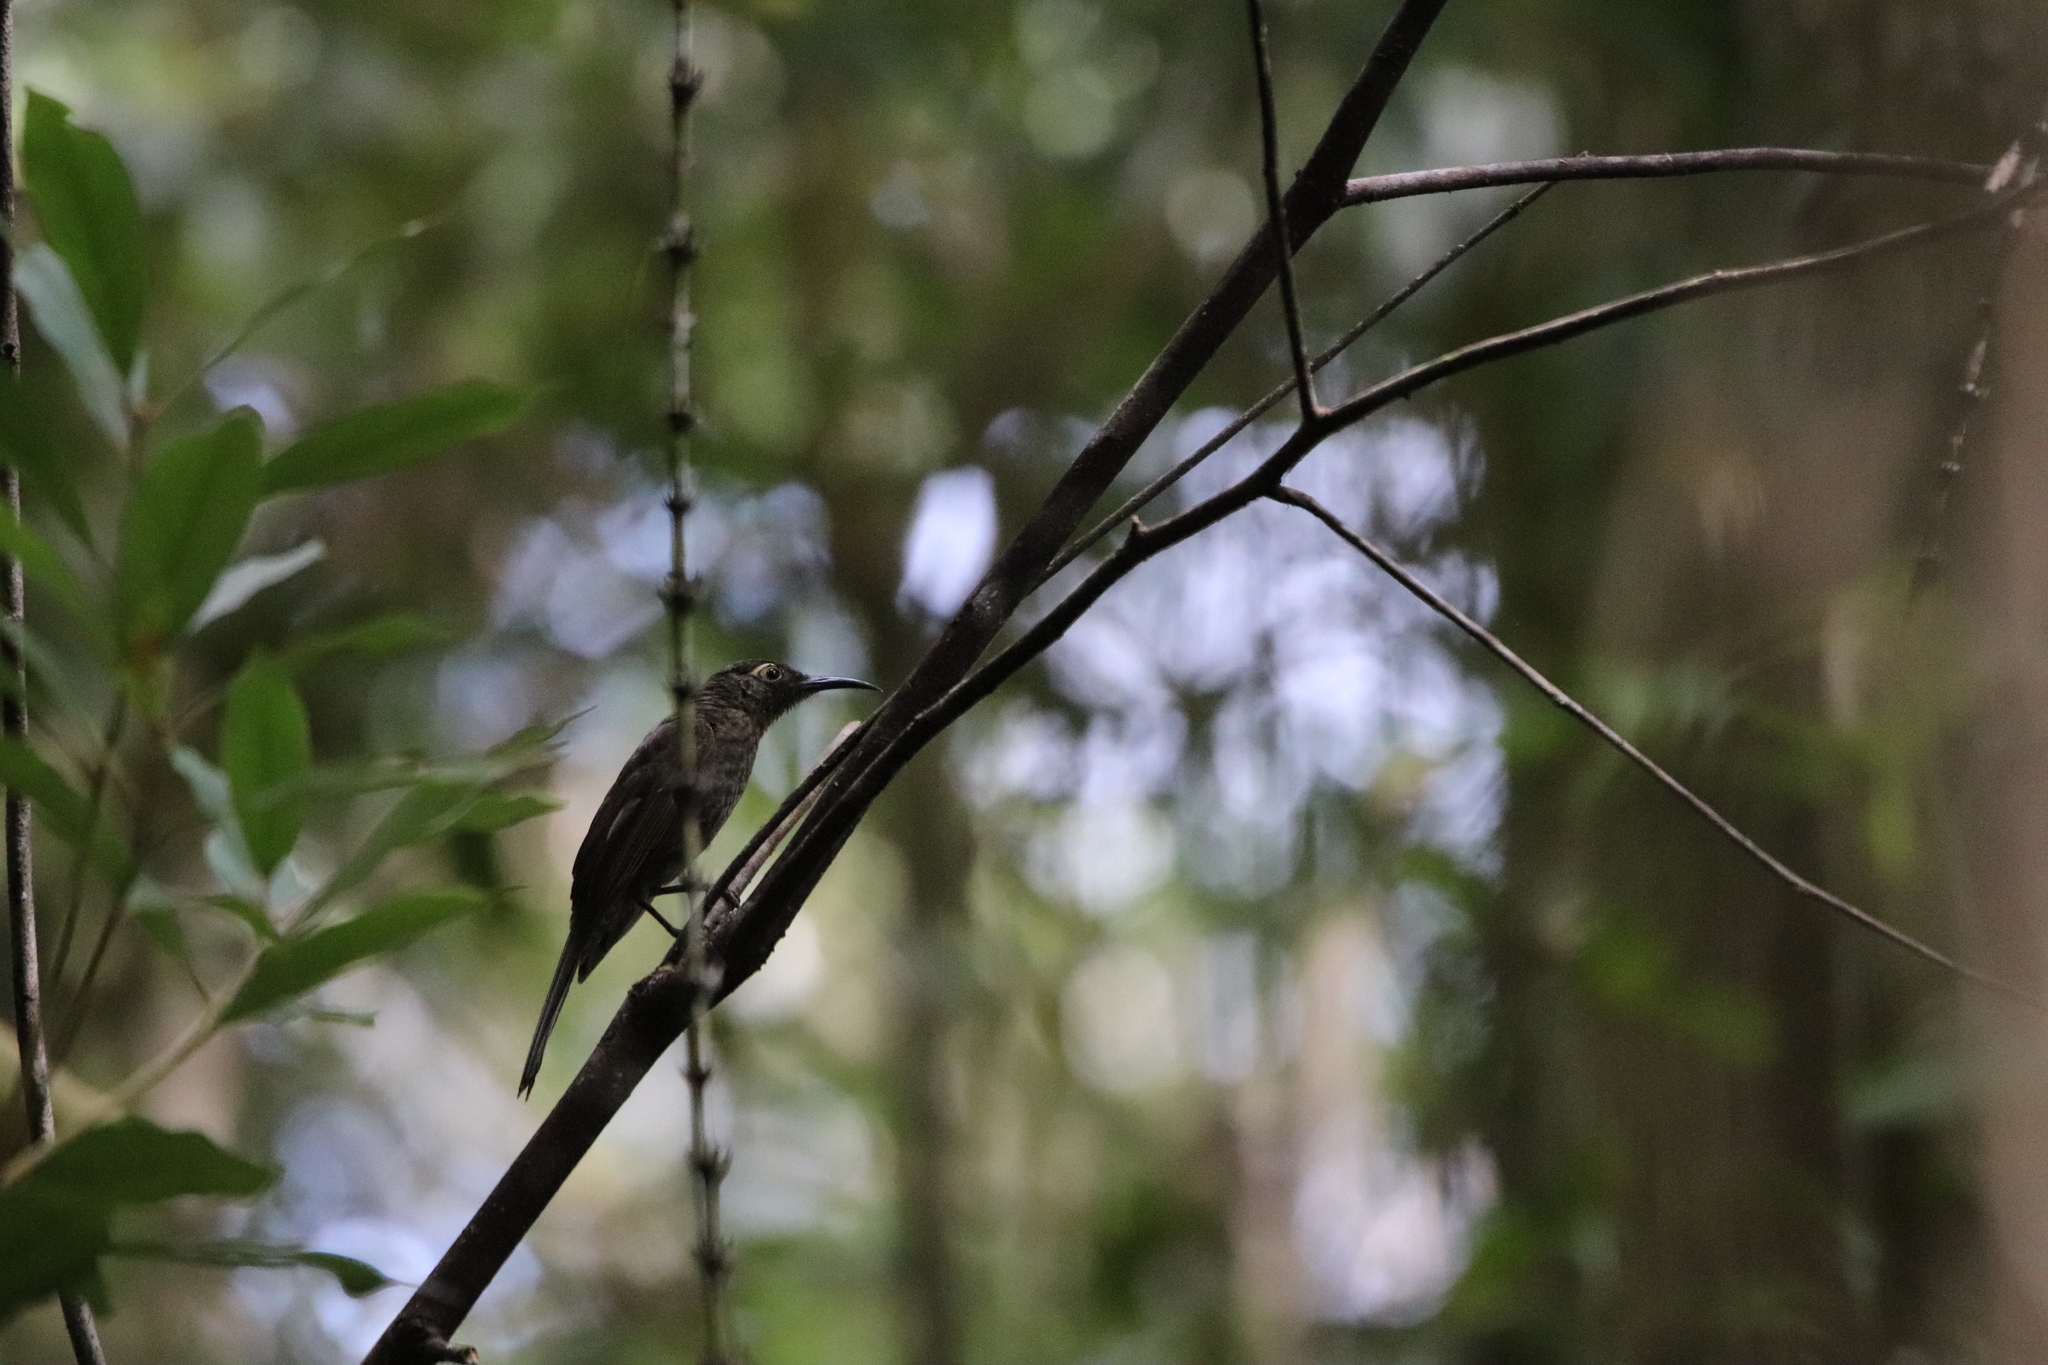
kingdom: Animalia
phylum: Chordata
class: Aves
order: Passeriformes
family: Meliphagidae
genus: Myza
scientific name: Myza celebensis
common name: Dark-eared myza
